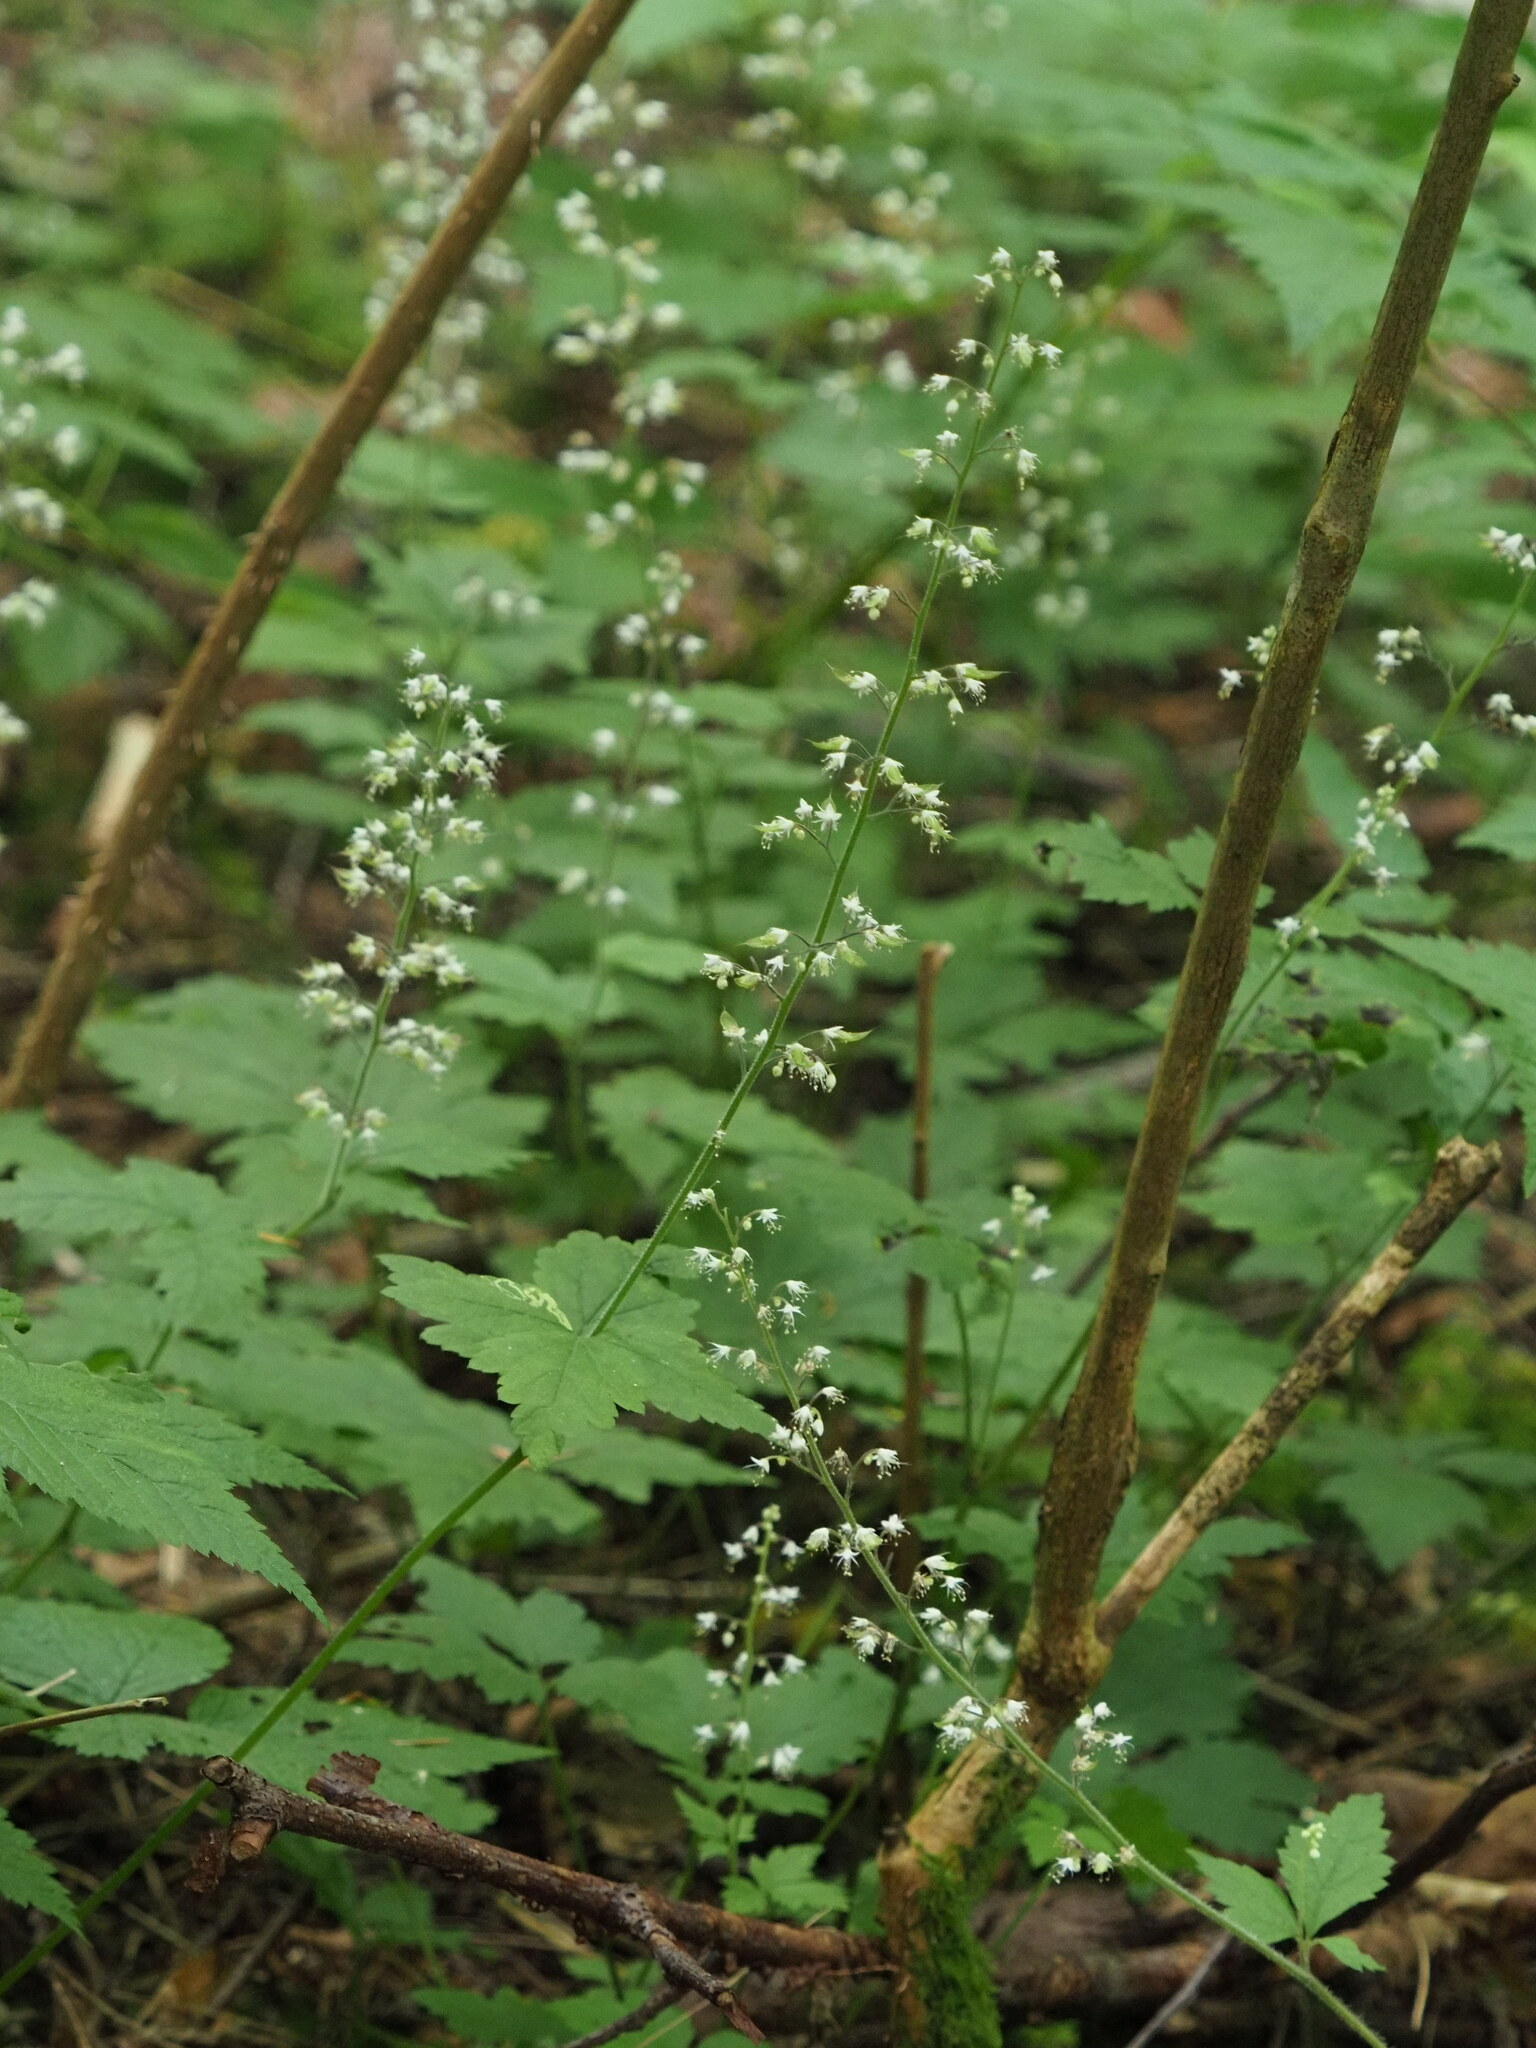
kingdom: Plantae
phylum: Tracheophyta
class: Magnoliopsida
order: Saxifragales
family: Saxifragaceae
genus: Tiarella
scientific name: Tiarella trifoliata
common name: Sugar-scoop
